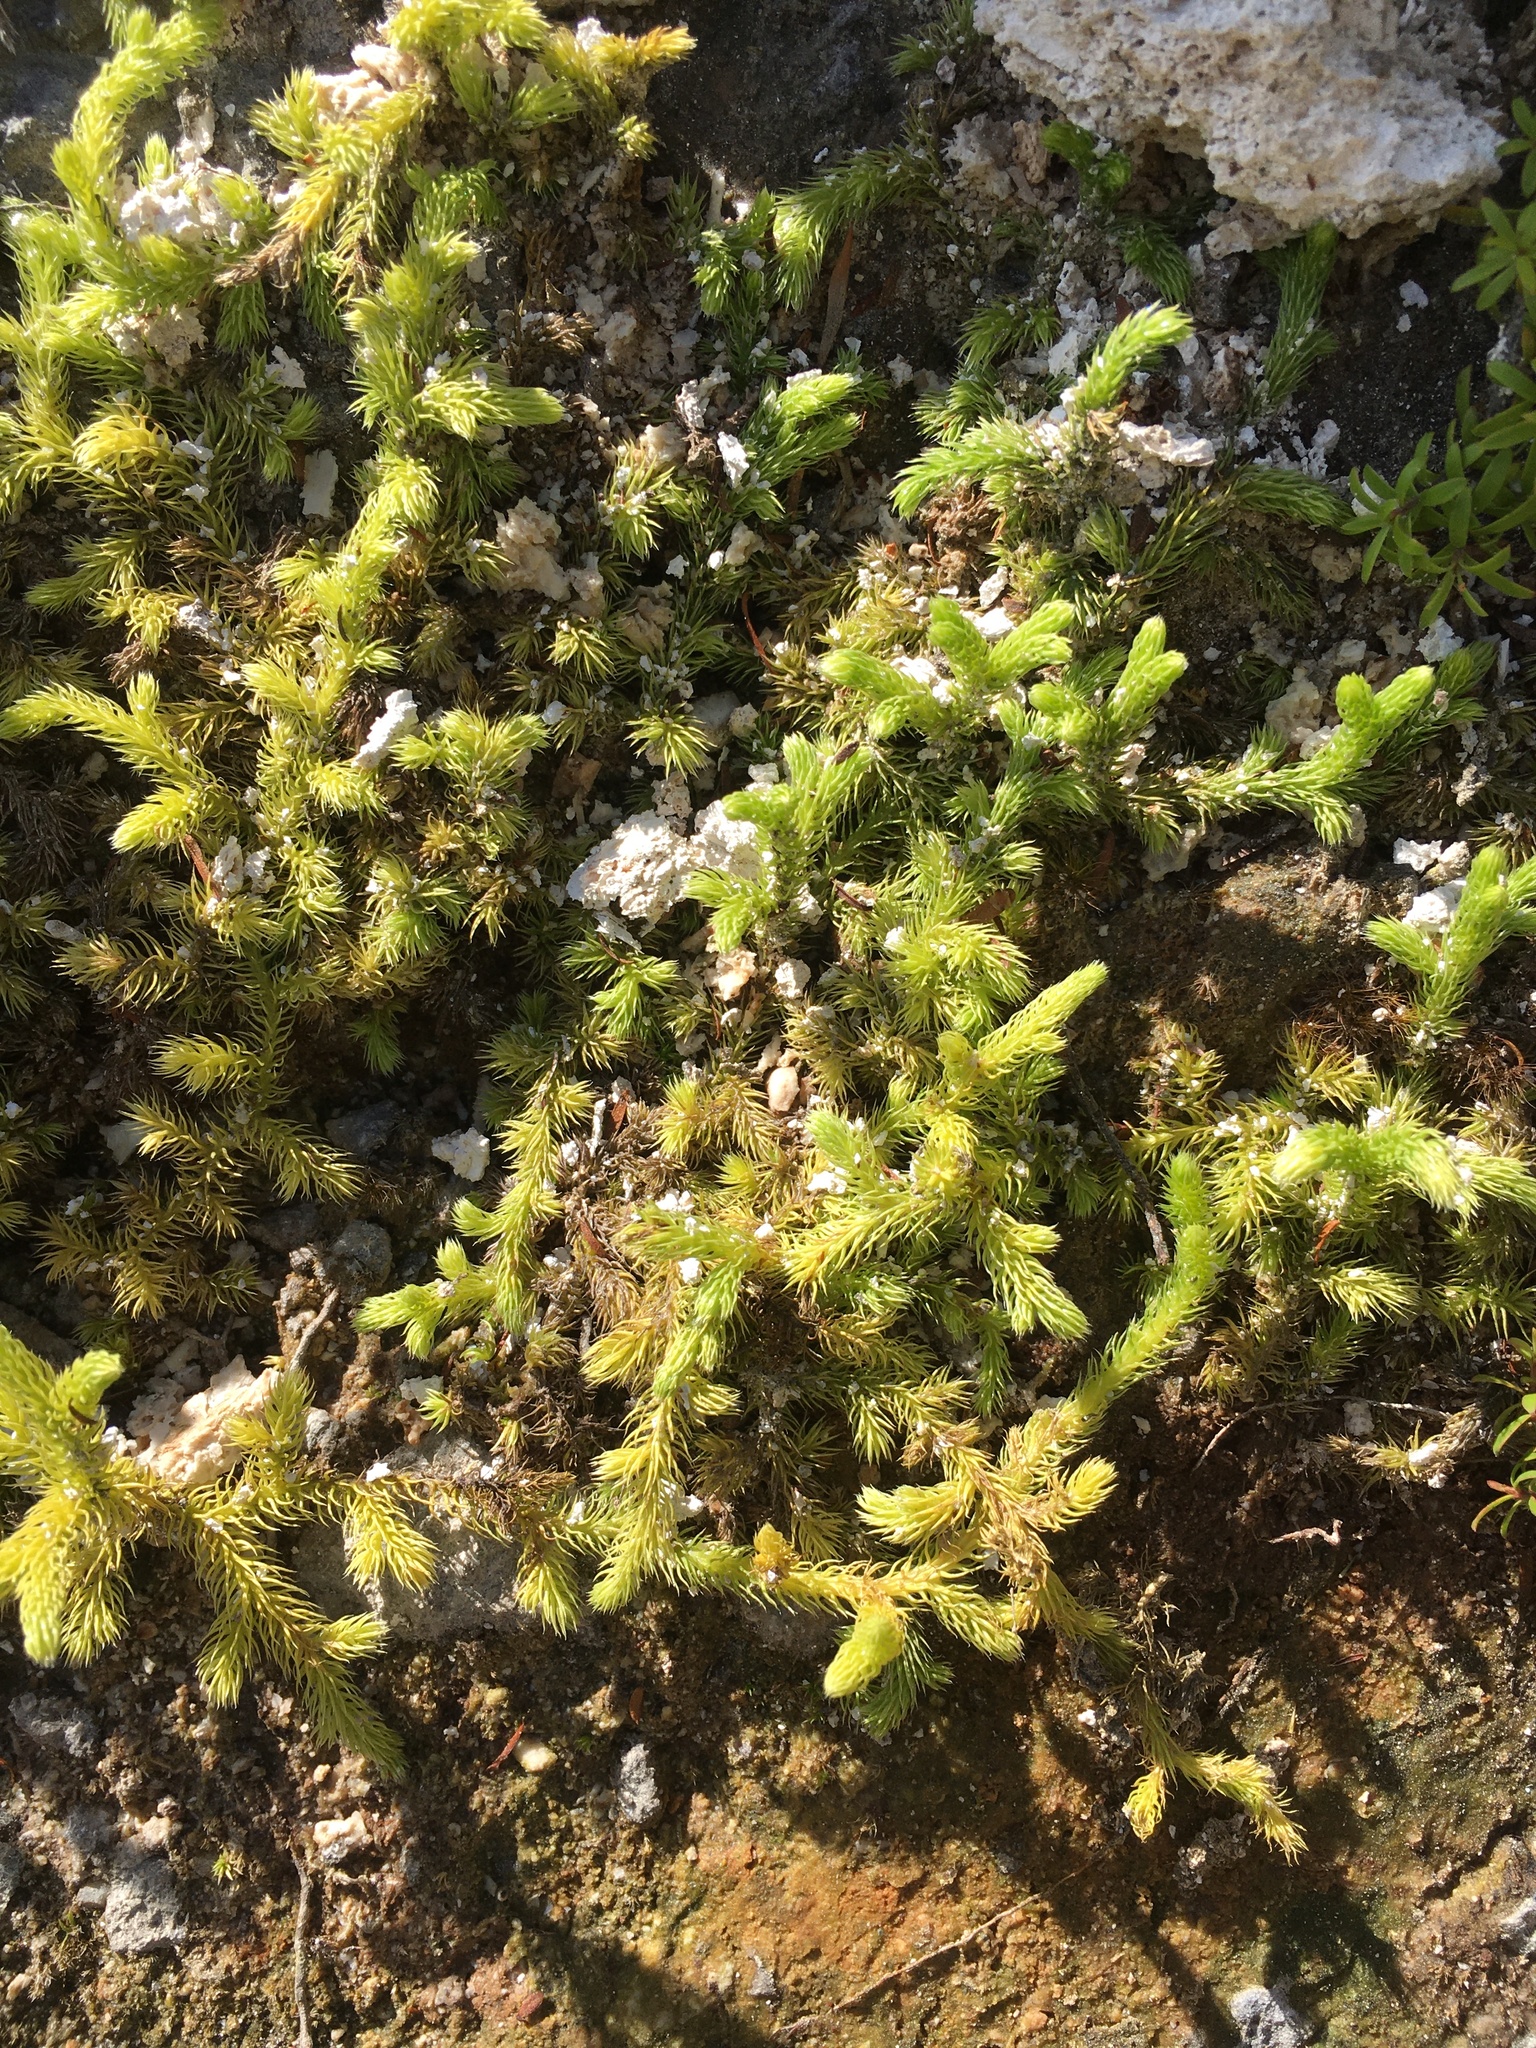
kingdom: Plantae
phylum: Tracheophyta
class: Lycopodiopsida
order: Lycopodiales
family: Lycopodiaceae
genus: Palhinhaea
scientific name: Palhinhaea cernua
